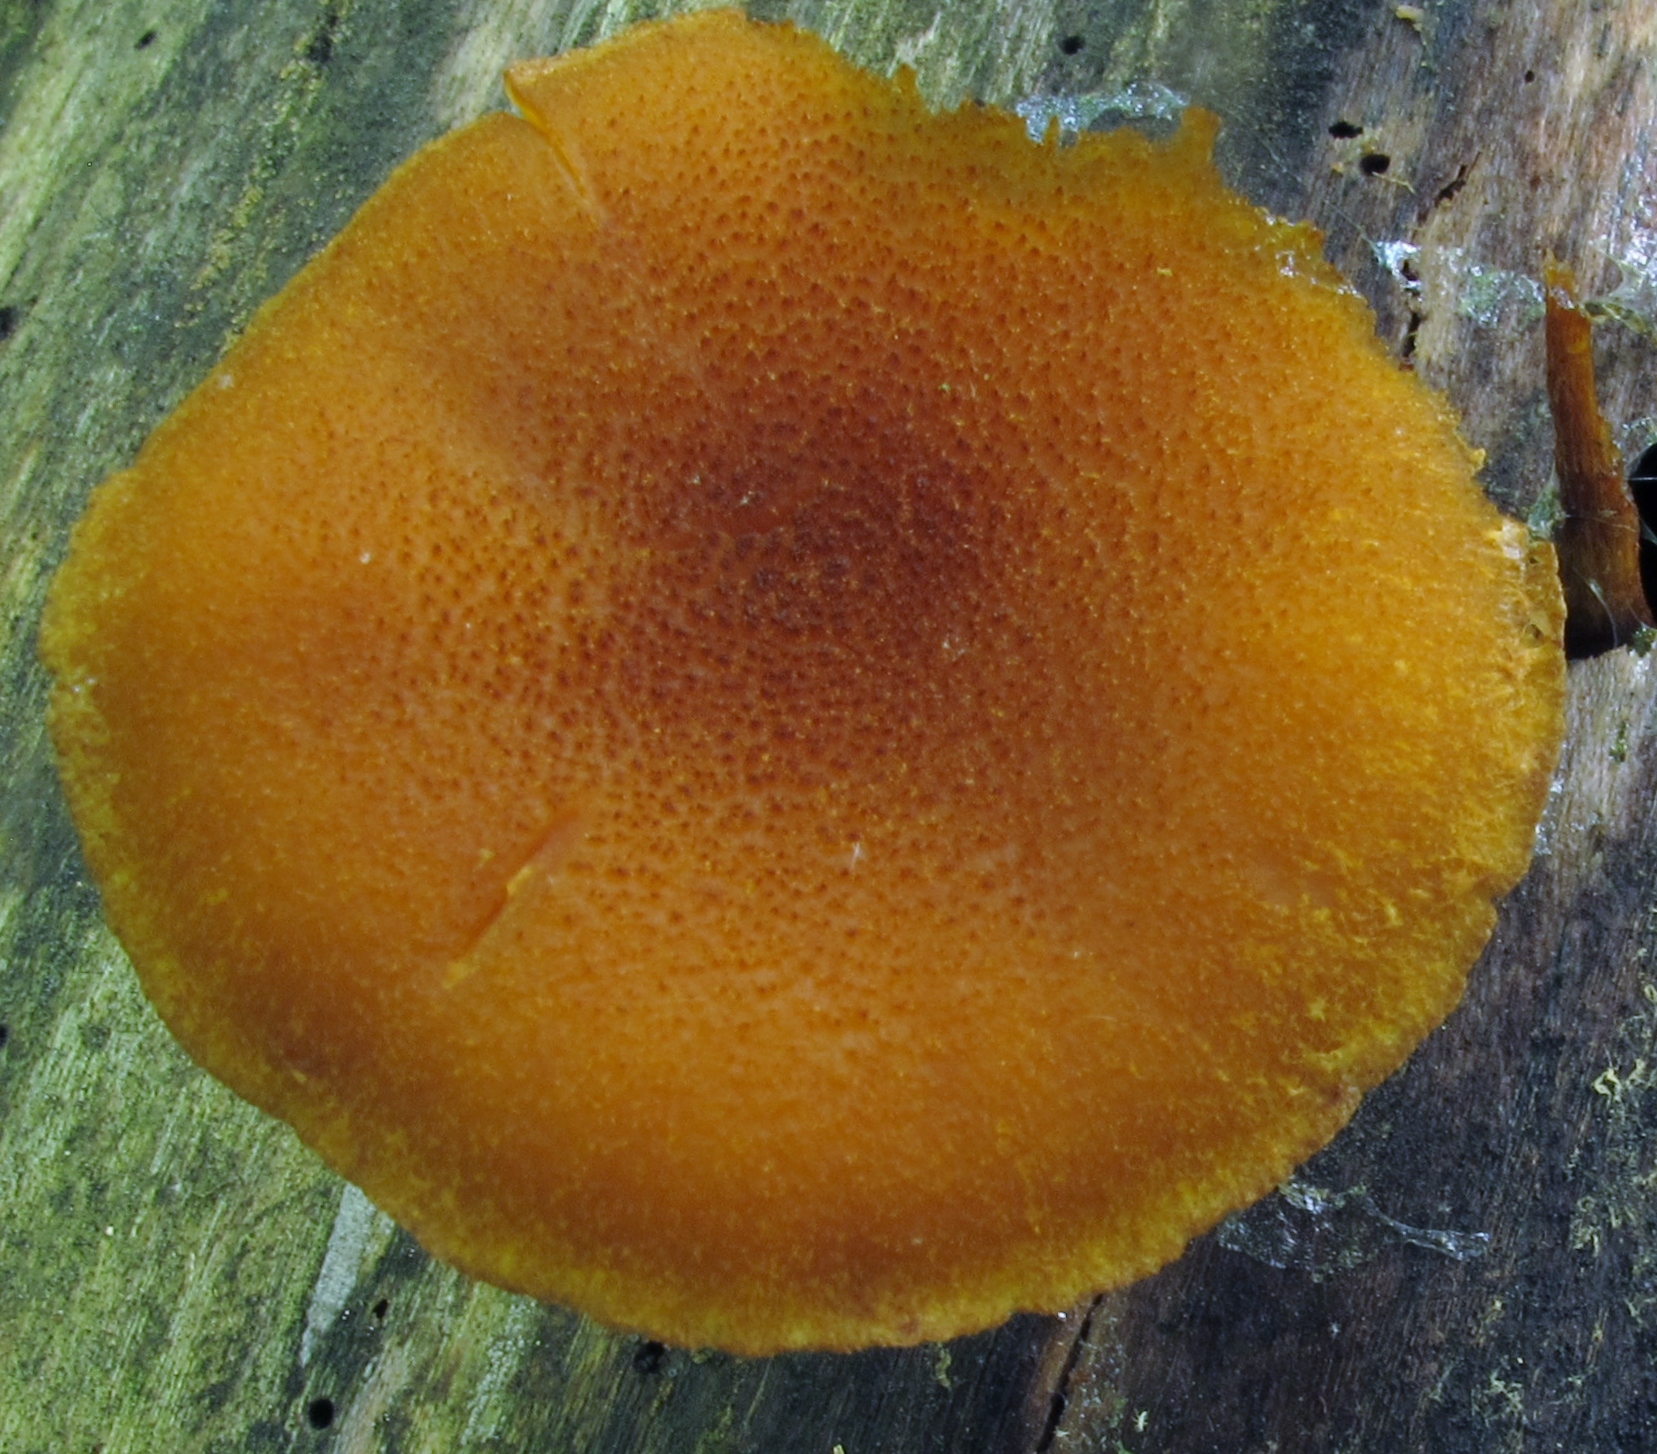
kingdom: Fungi
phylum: Basidiomycota
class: Agaricomycetes
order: Agaricales
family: Strophariaceae
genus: Pholiota
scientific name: Pholiota granulosa
